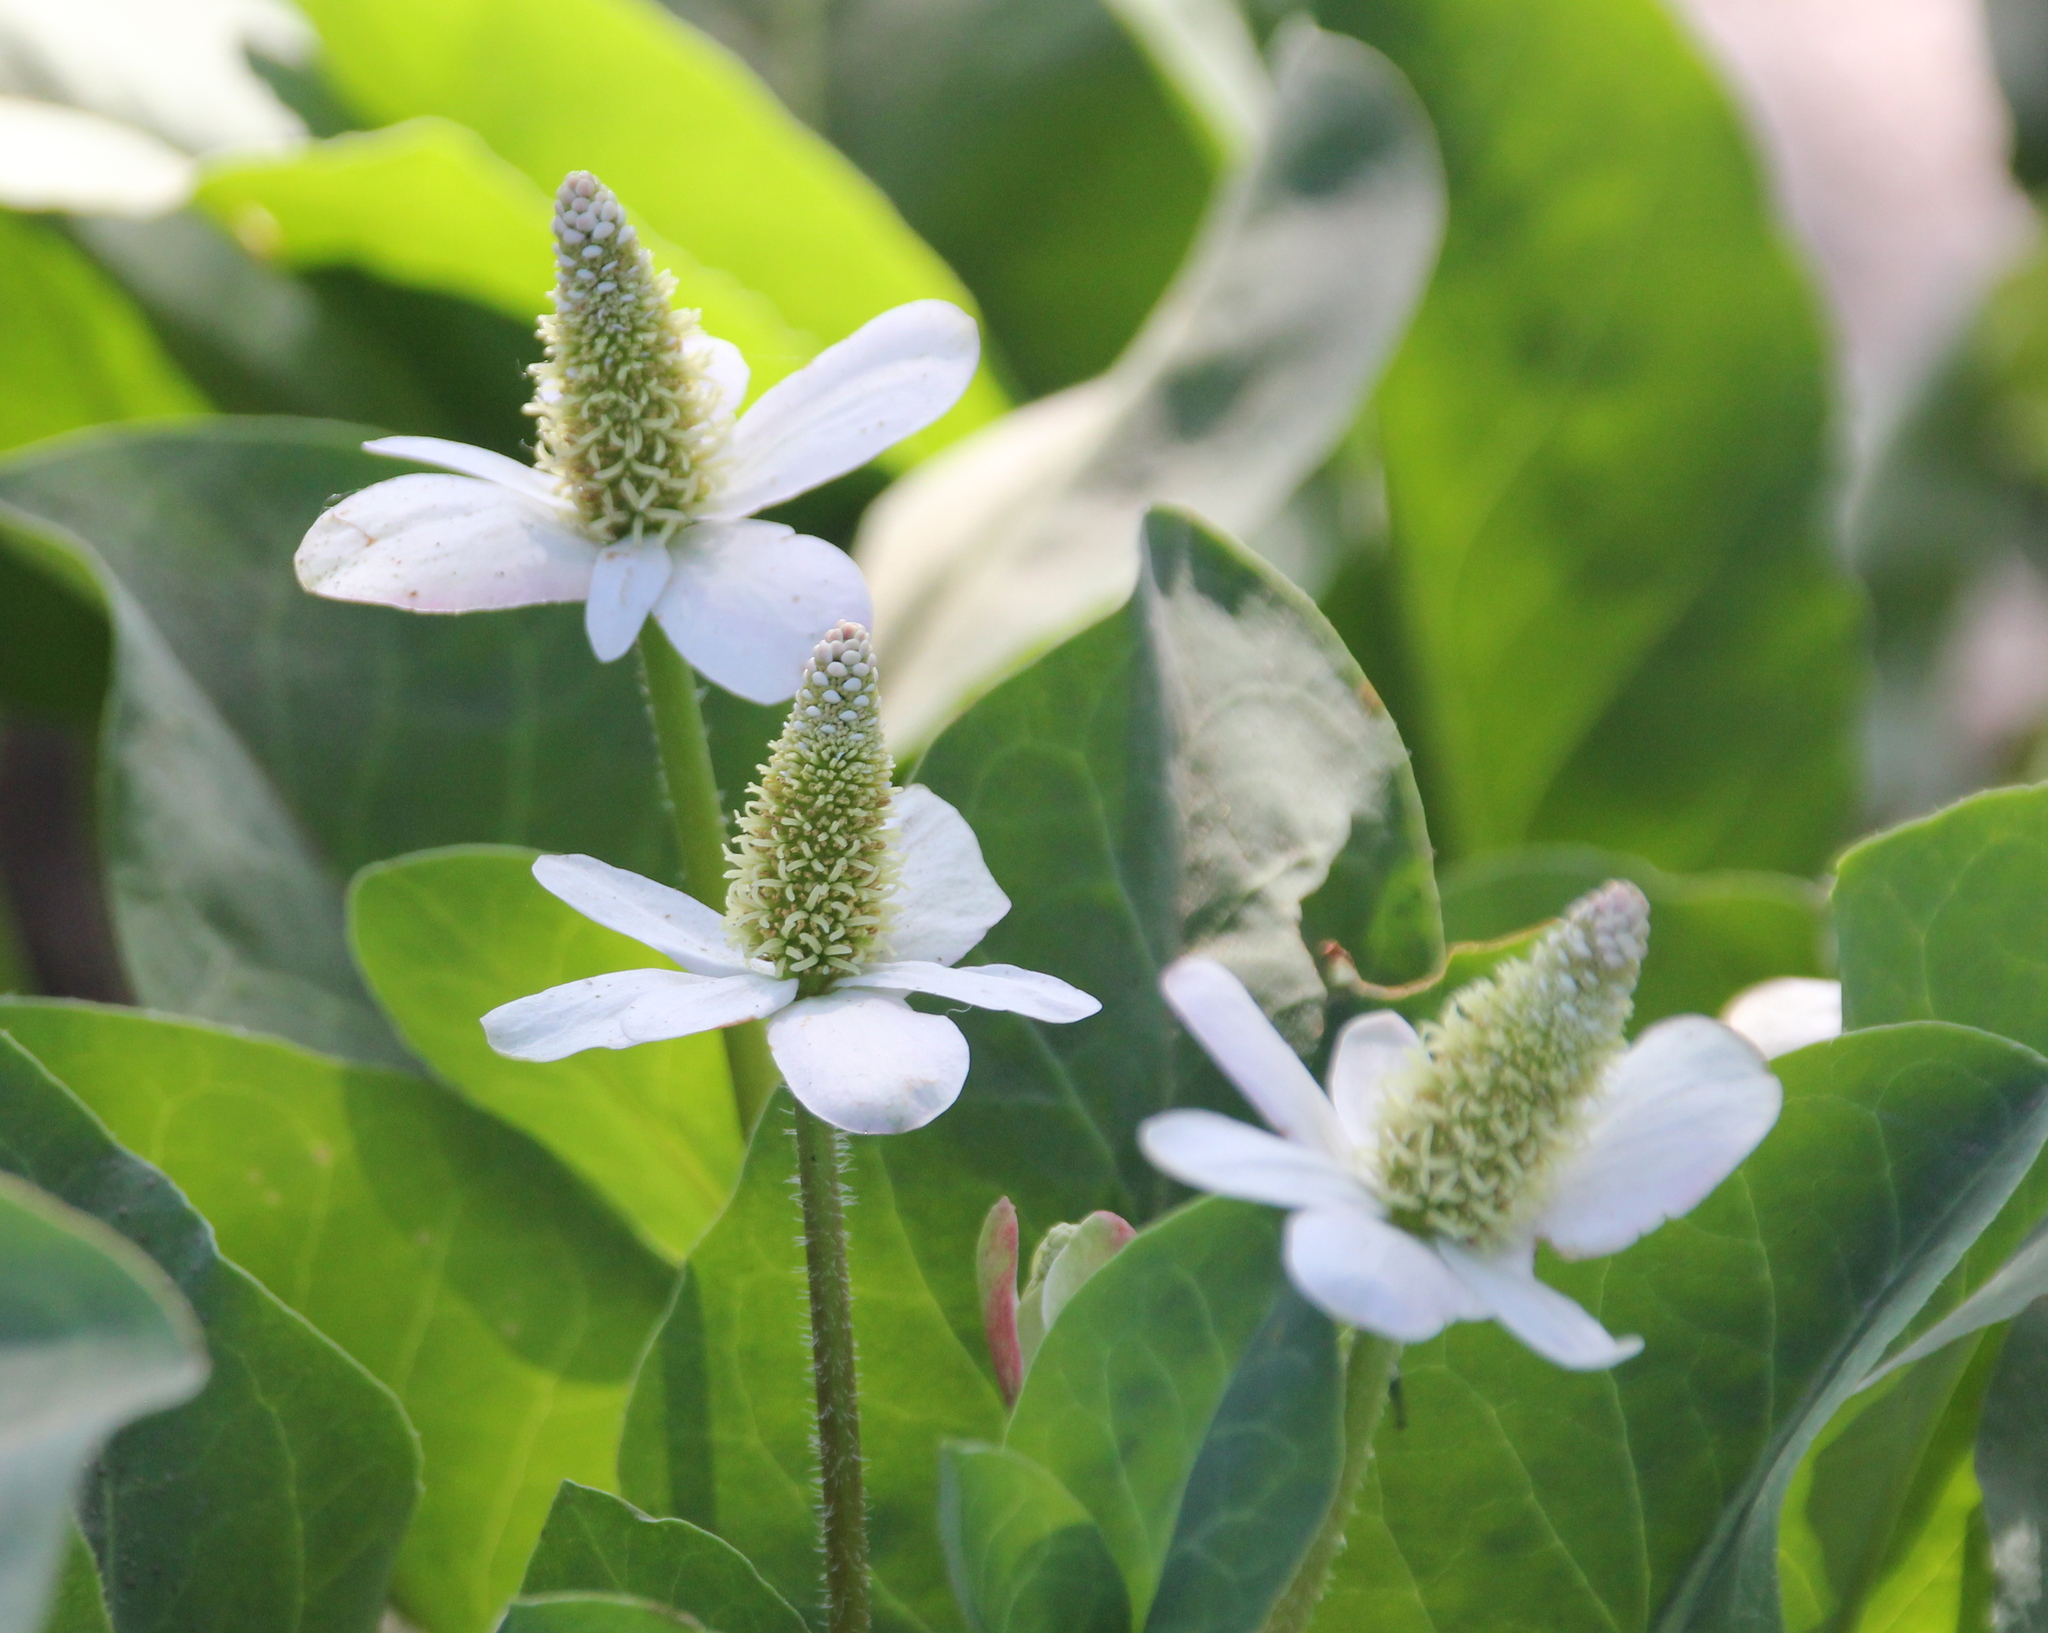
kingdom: Plantae
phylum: Tracheophyta
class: Magnoliopsida
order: Piperales
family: Saururaceae
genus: Anemopsis
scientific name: Anemopsis californica
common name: Apache-beads
